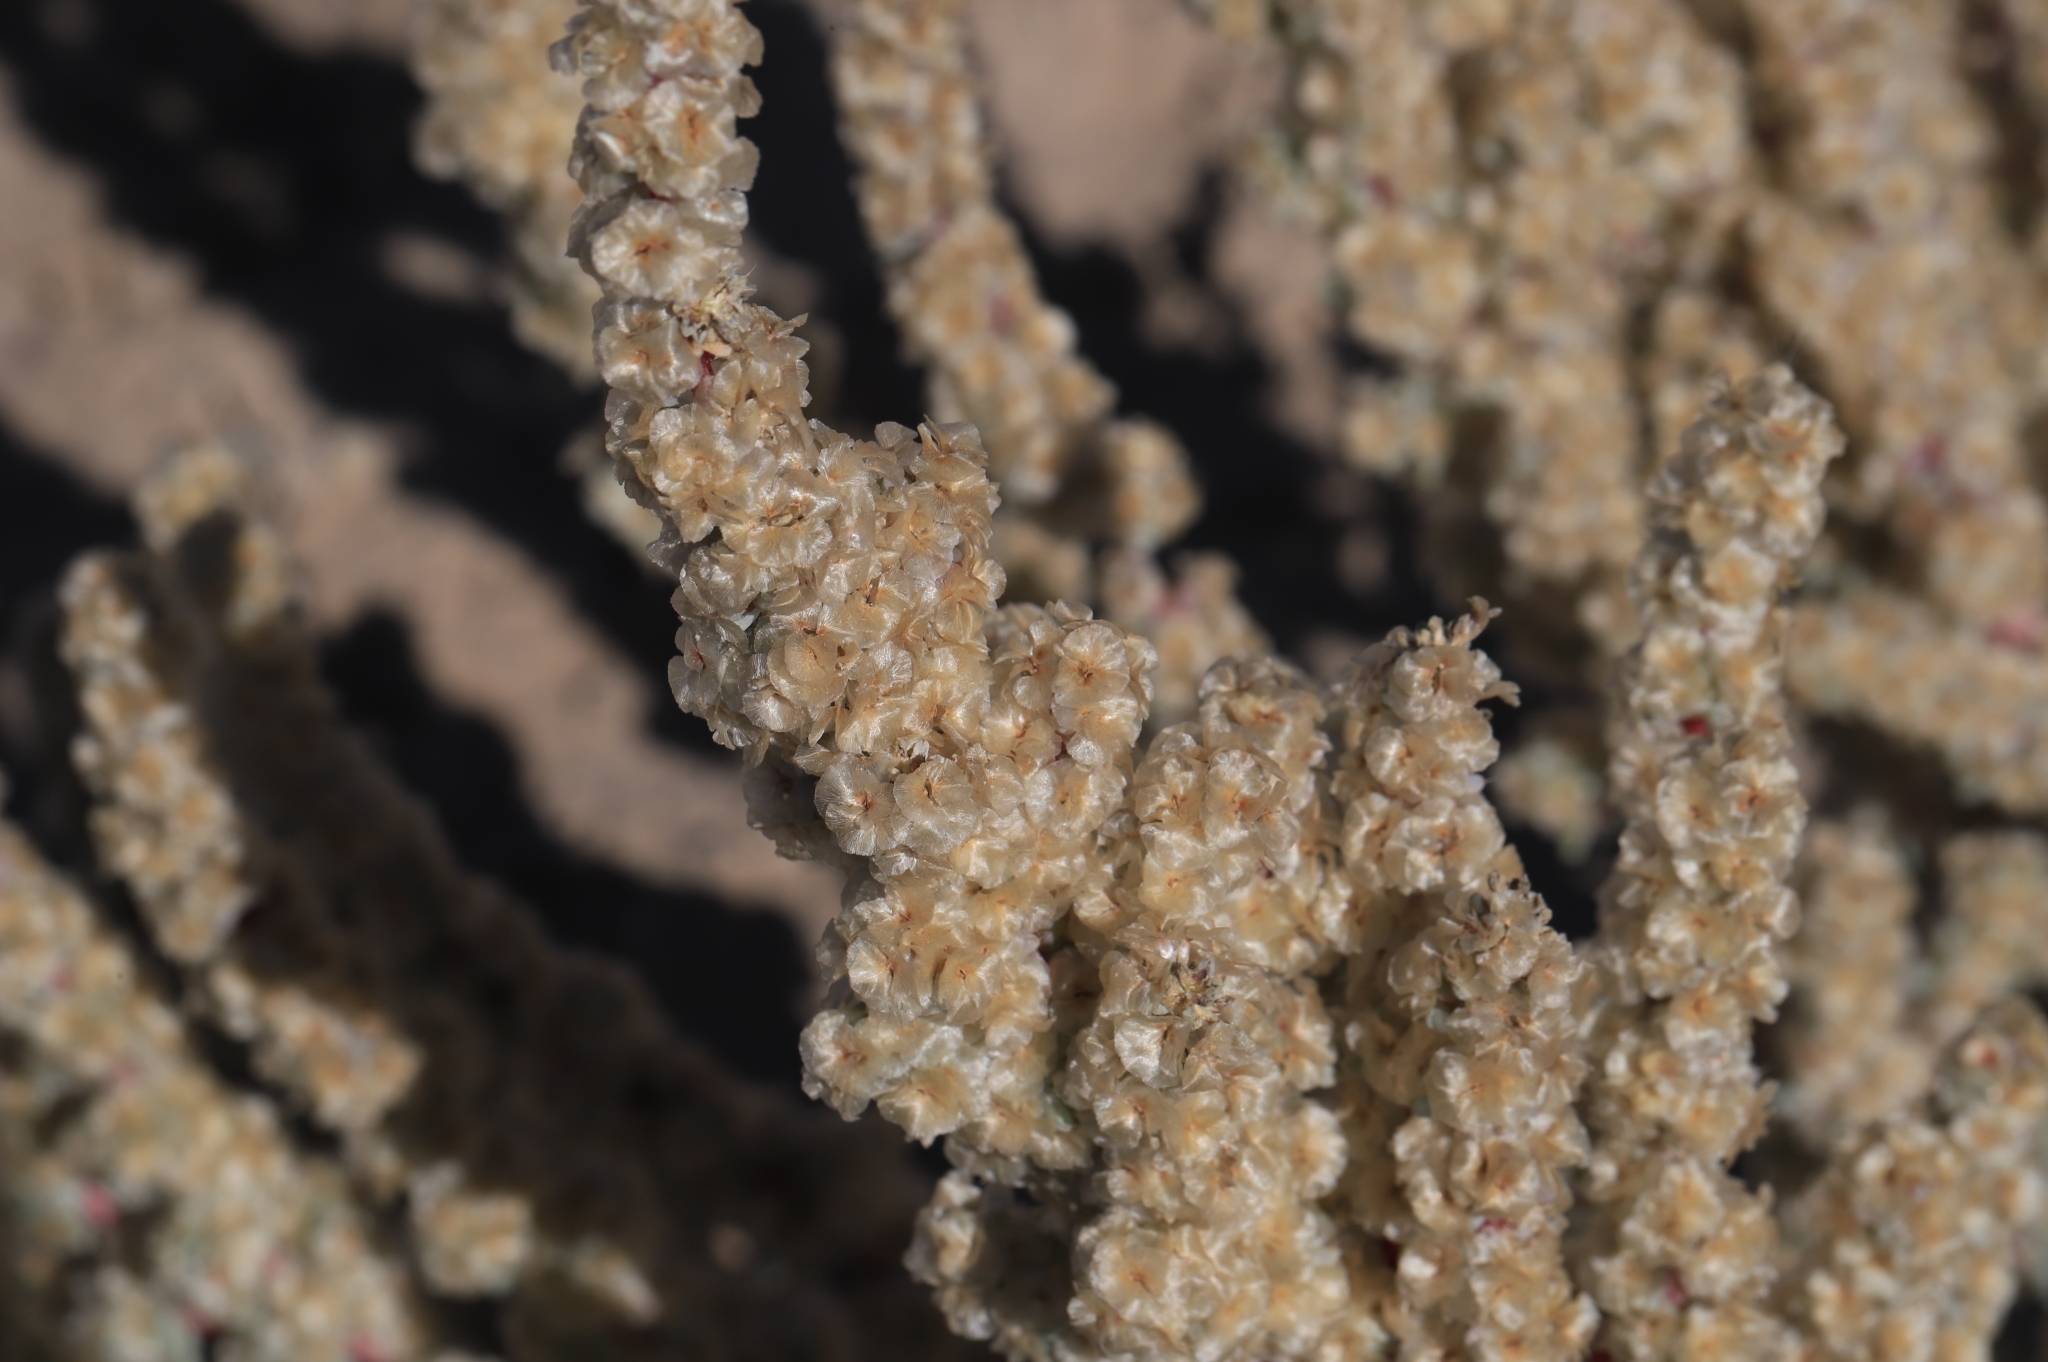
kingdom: Plantae
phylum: Tracheophyta
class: Magnoliopsida
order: Caryophyllales
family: Amaranthaceae
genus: Halogeton
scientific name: Halogeton glomeratus
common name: Saltlover
